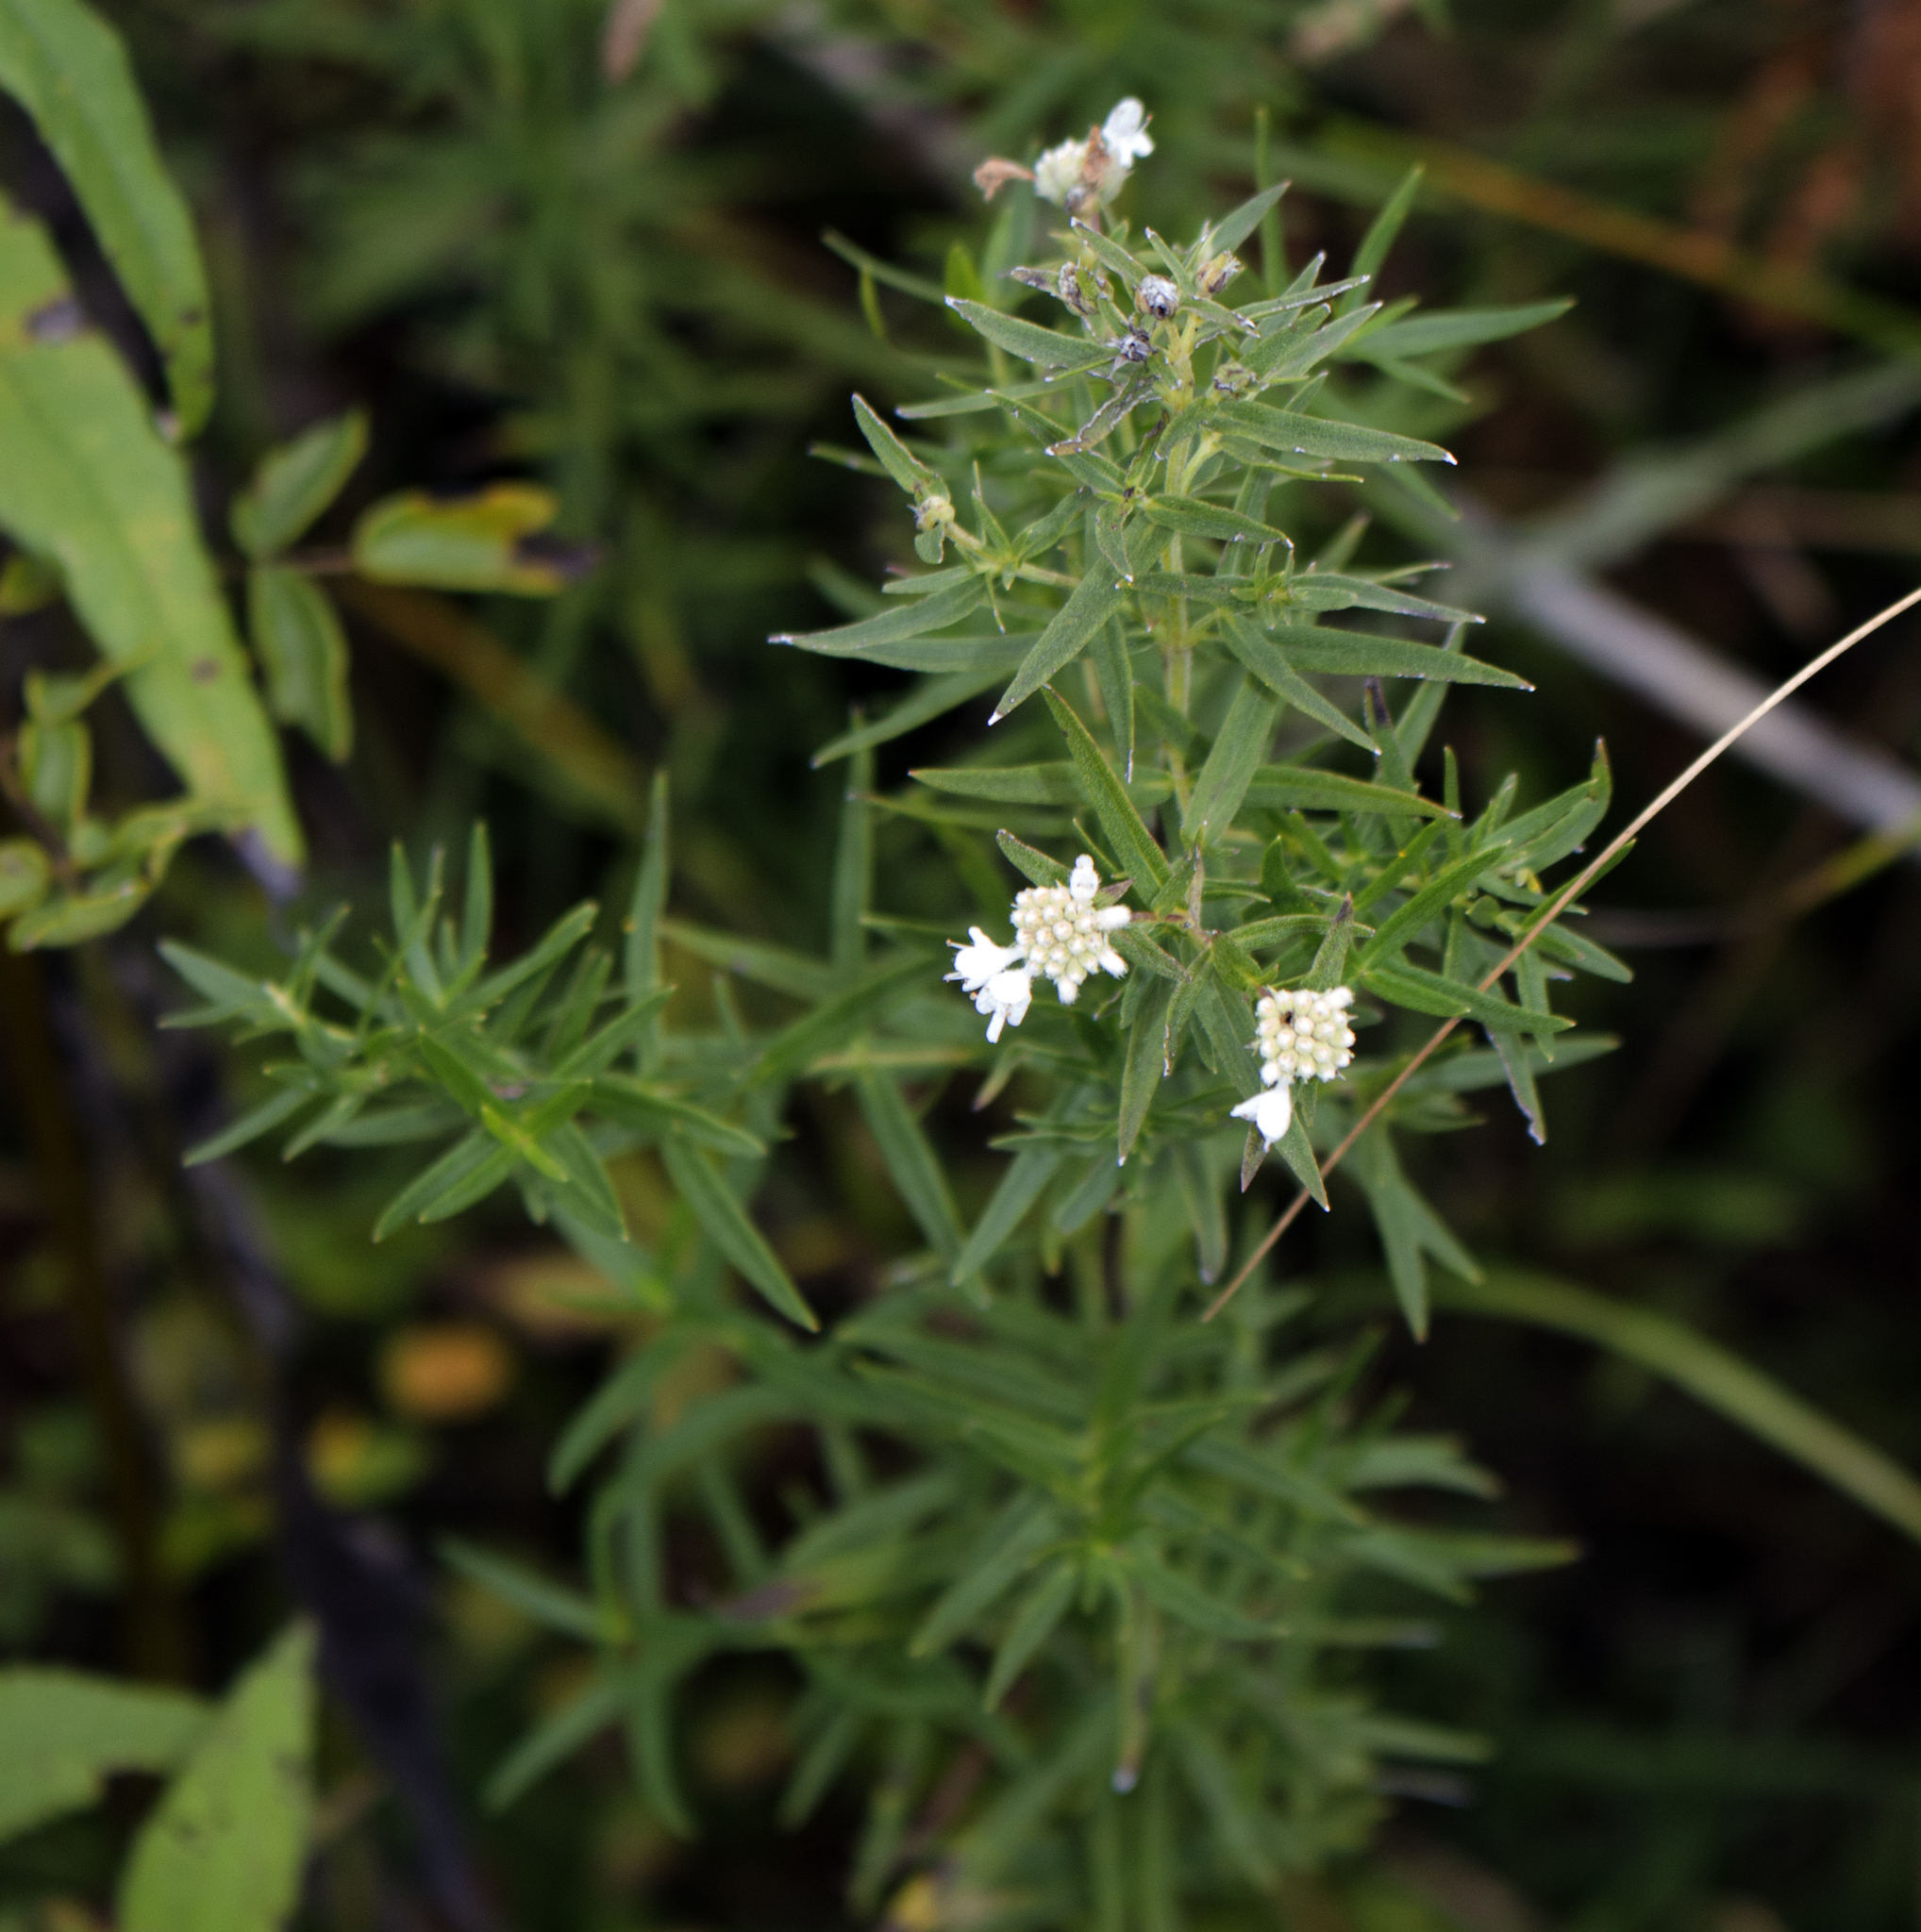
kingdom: Plantae
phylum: Tracheophyta
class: Magnoliopsida
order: Lamiales
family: Lamiaceae
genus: Pycnanthemum
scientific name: Pycnanthemum virginianum
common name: Virginia mountain-mint
